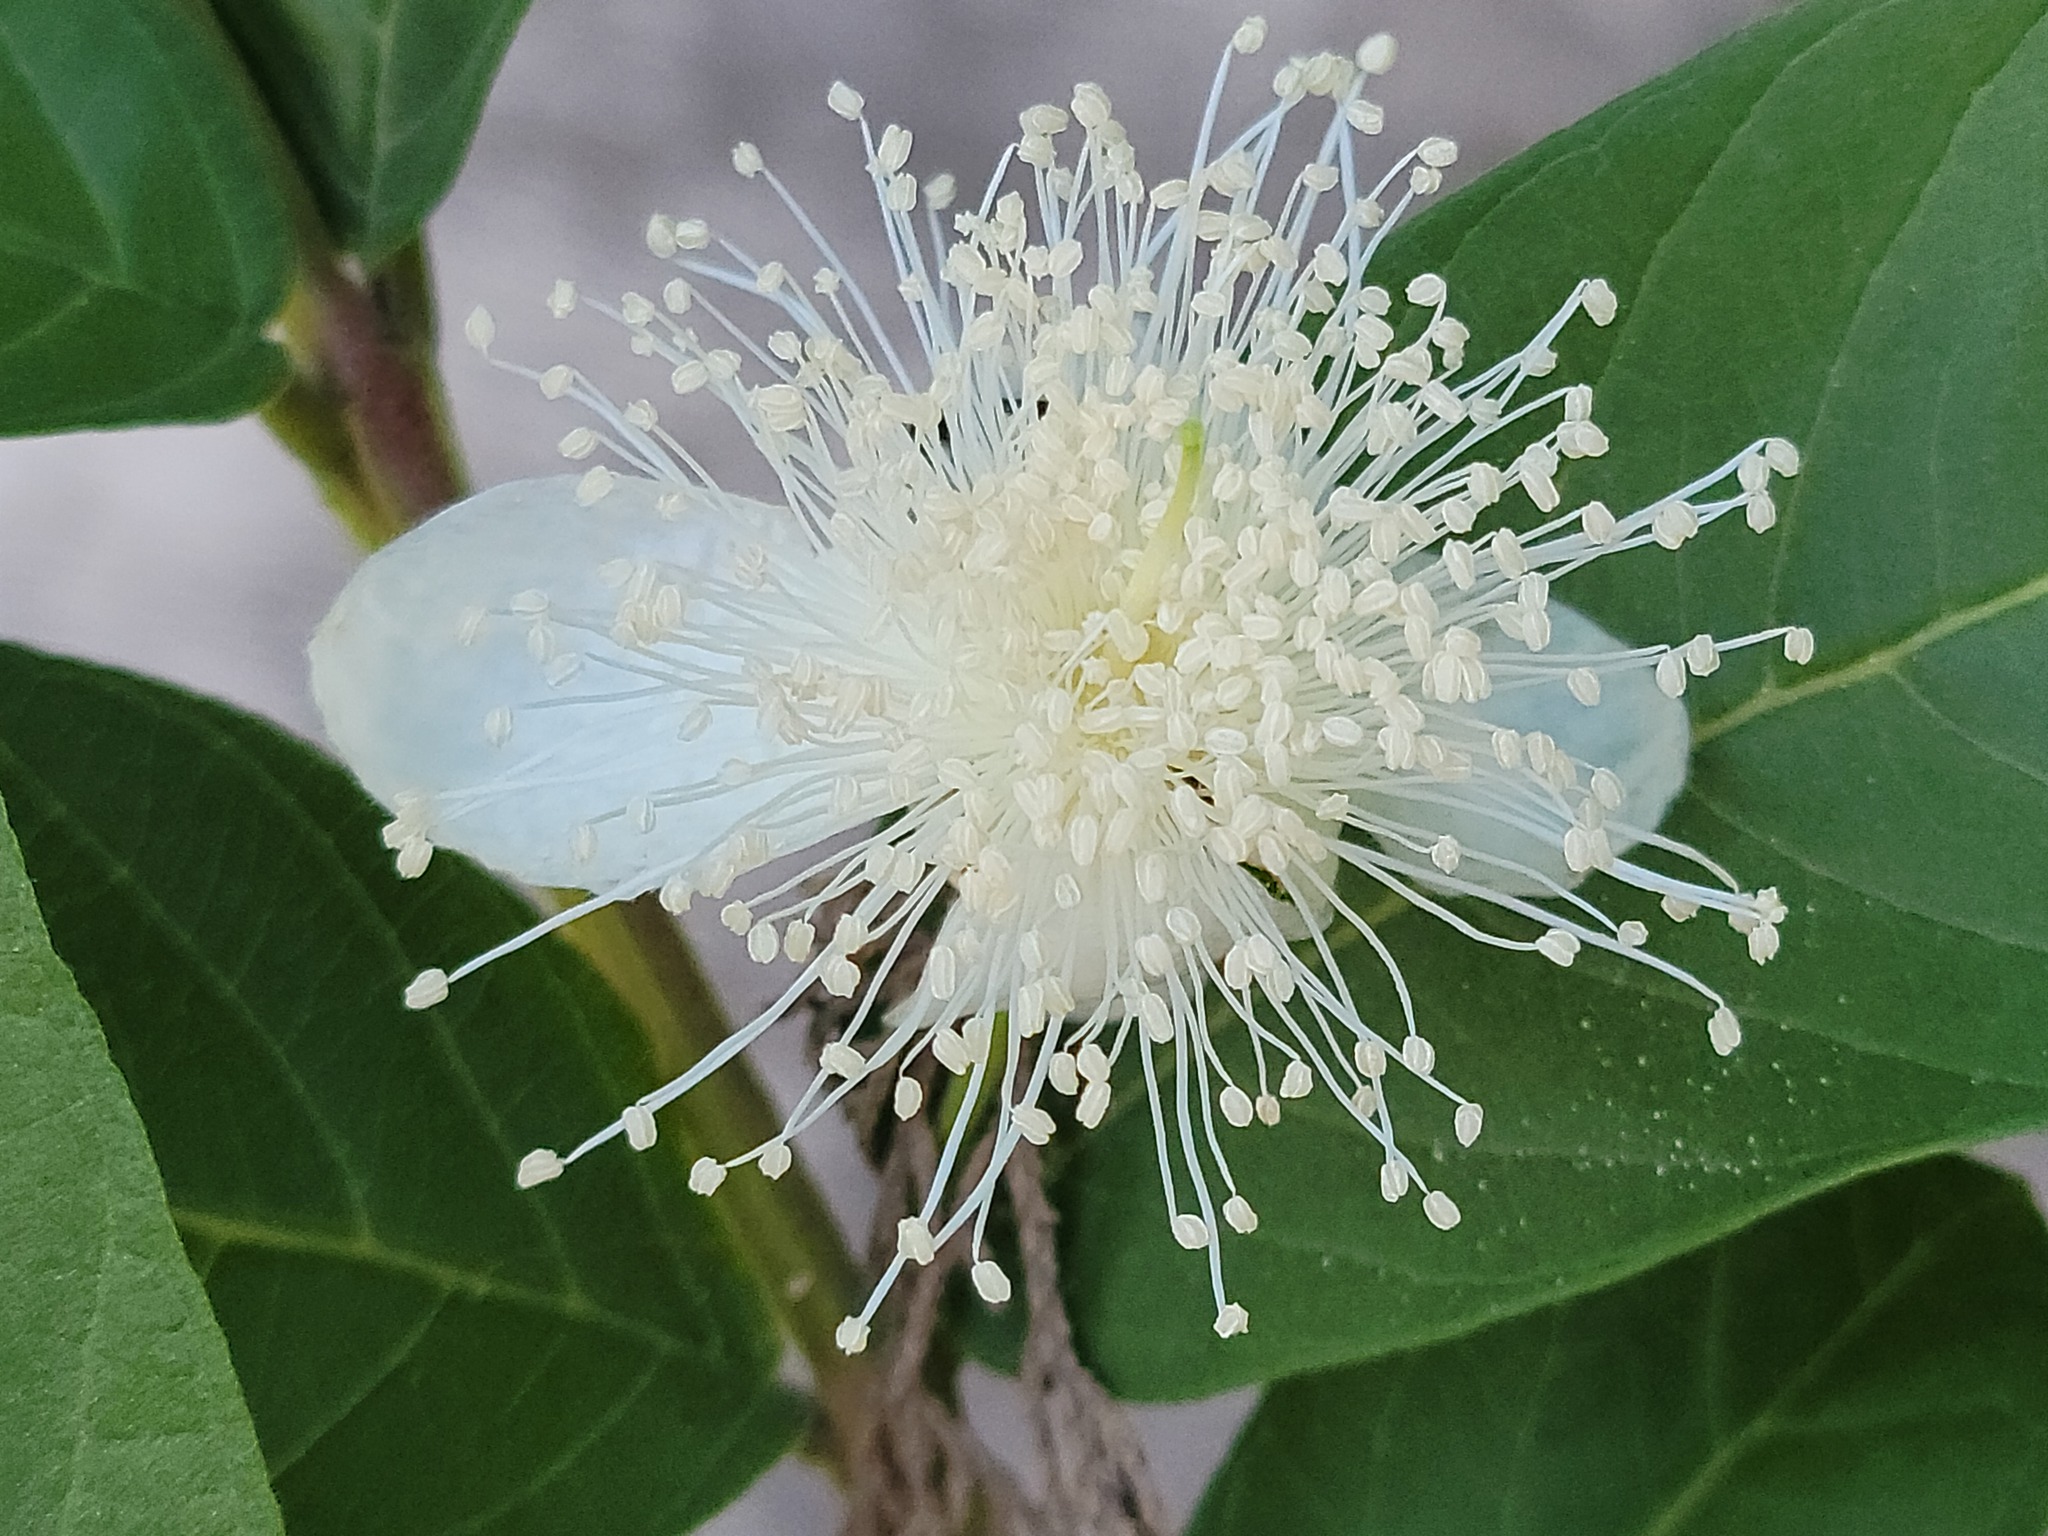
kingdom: Plantae
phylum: Tracheophyta
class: Magnoliopsida
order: Myrtales
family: Myrtaceae
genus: Psidium
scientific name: Psidium guajava
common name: Guava
